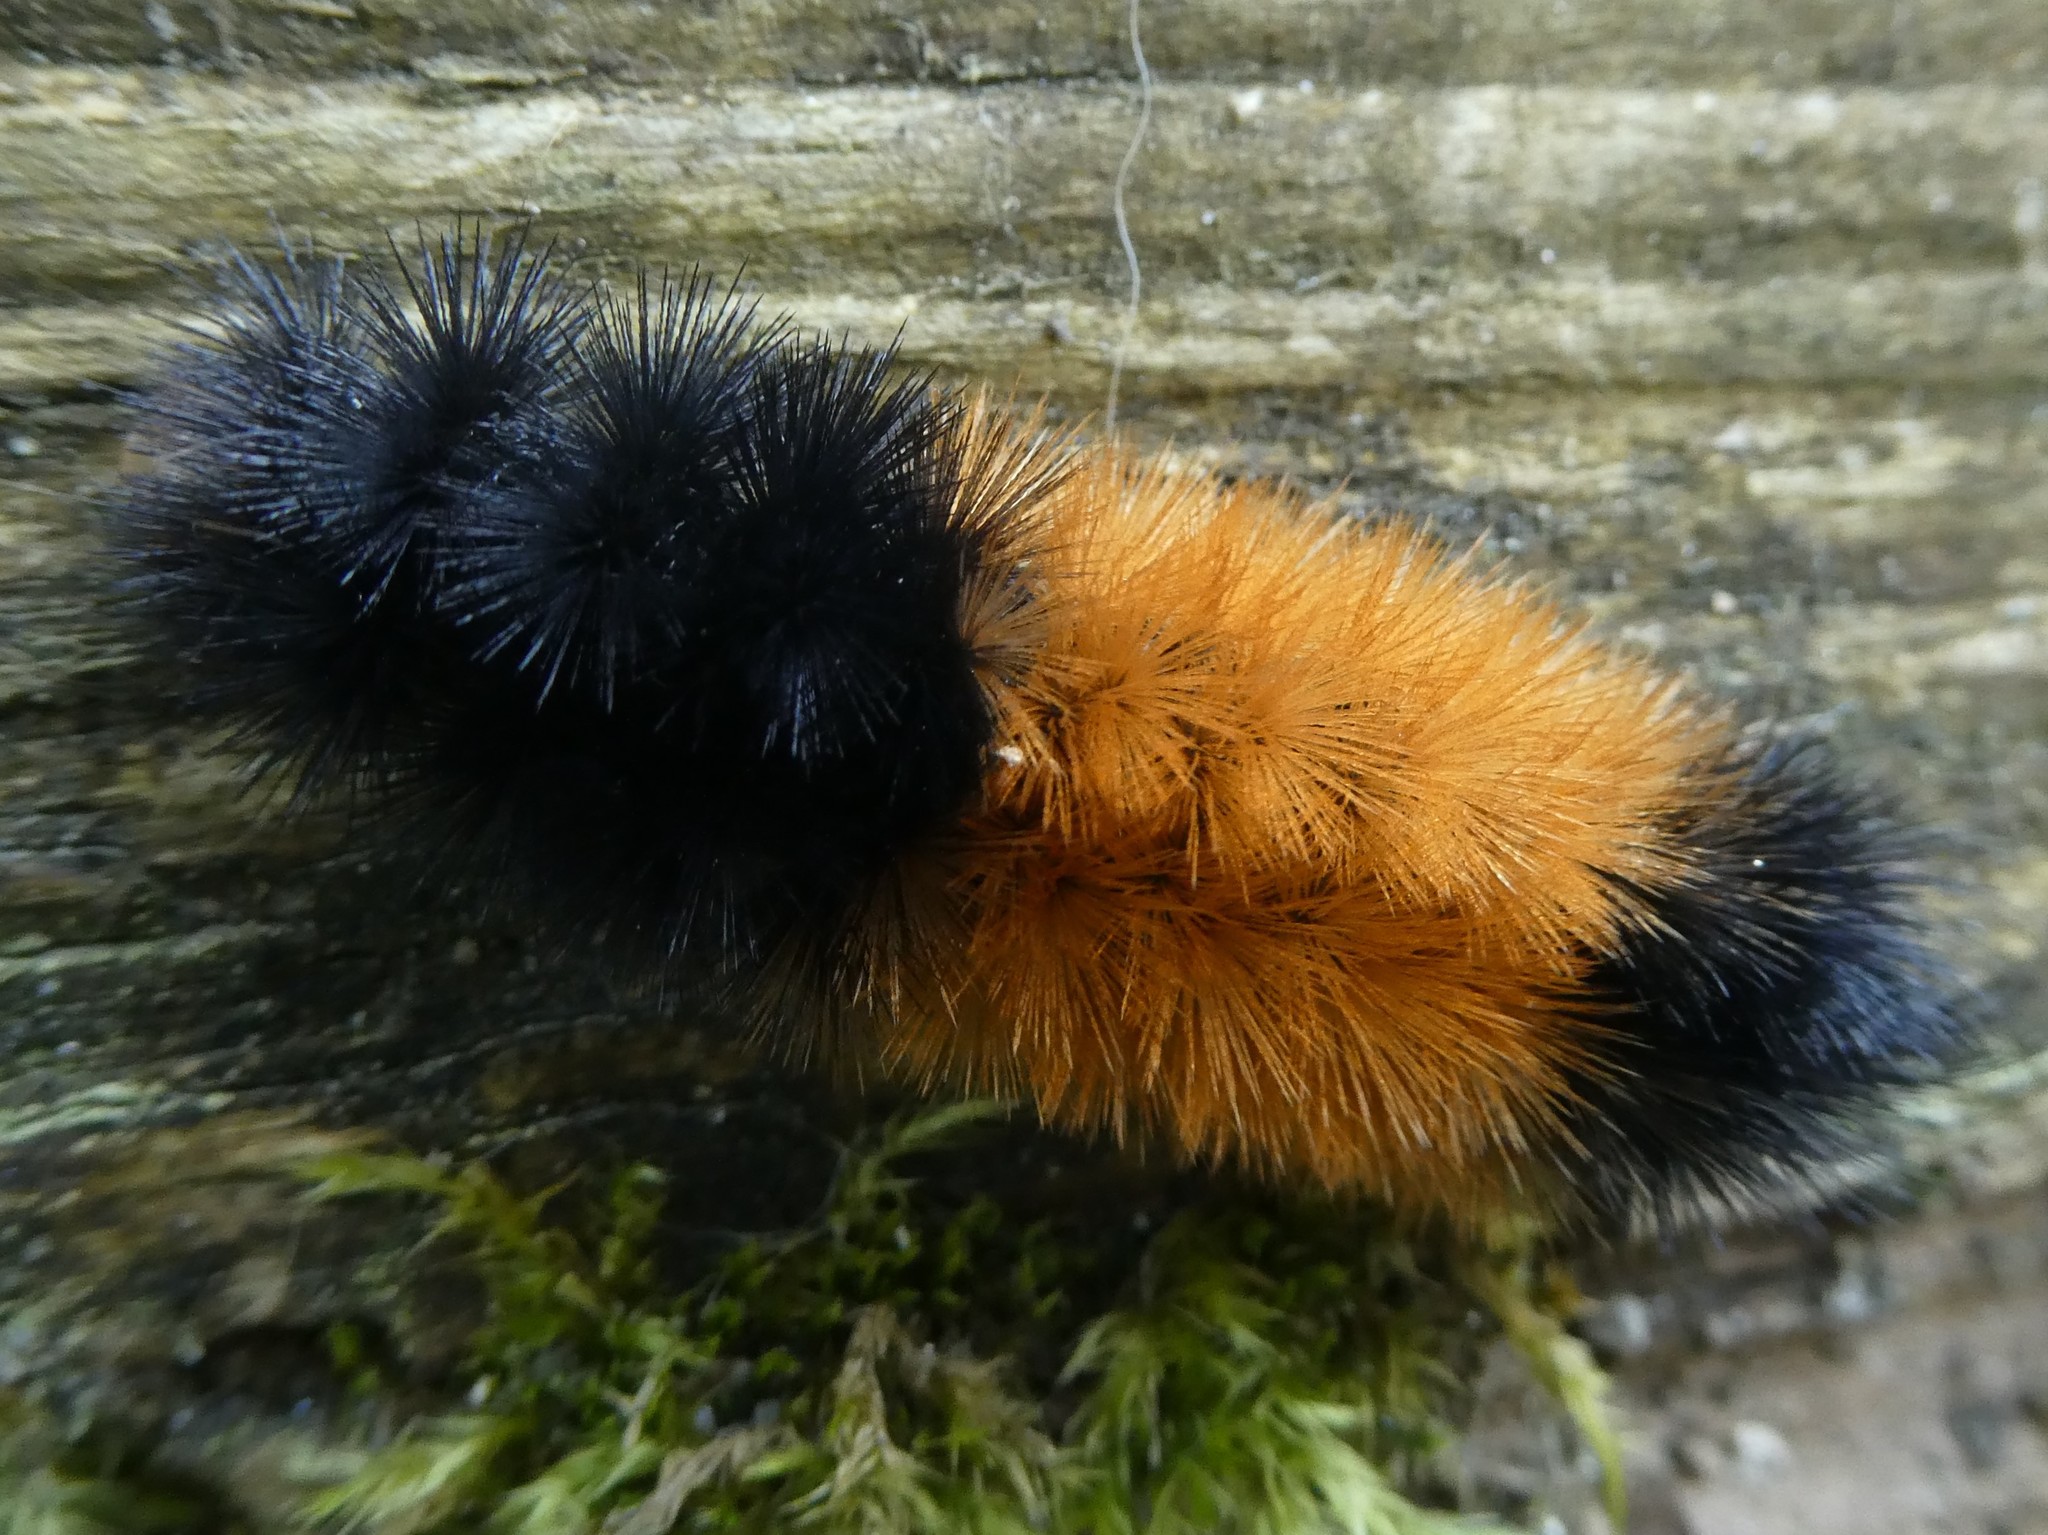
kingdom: Animalia
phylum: Arthropoda
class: Insecta
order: Lepidoptera
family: Erebidae
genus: Pyrrharctia
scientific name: Pyrrharctia isabella
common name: Isabella tiger moth
